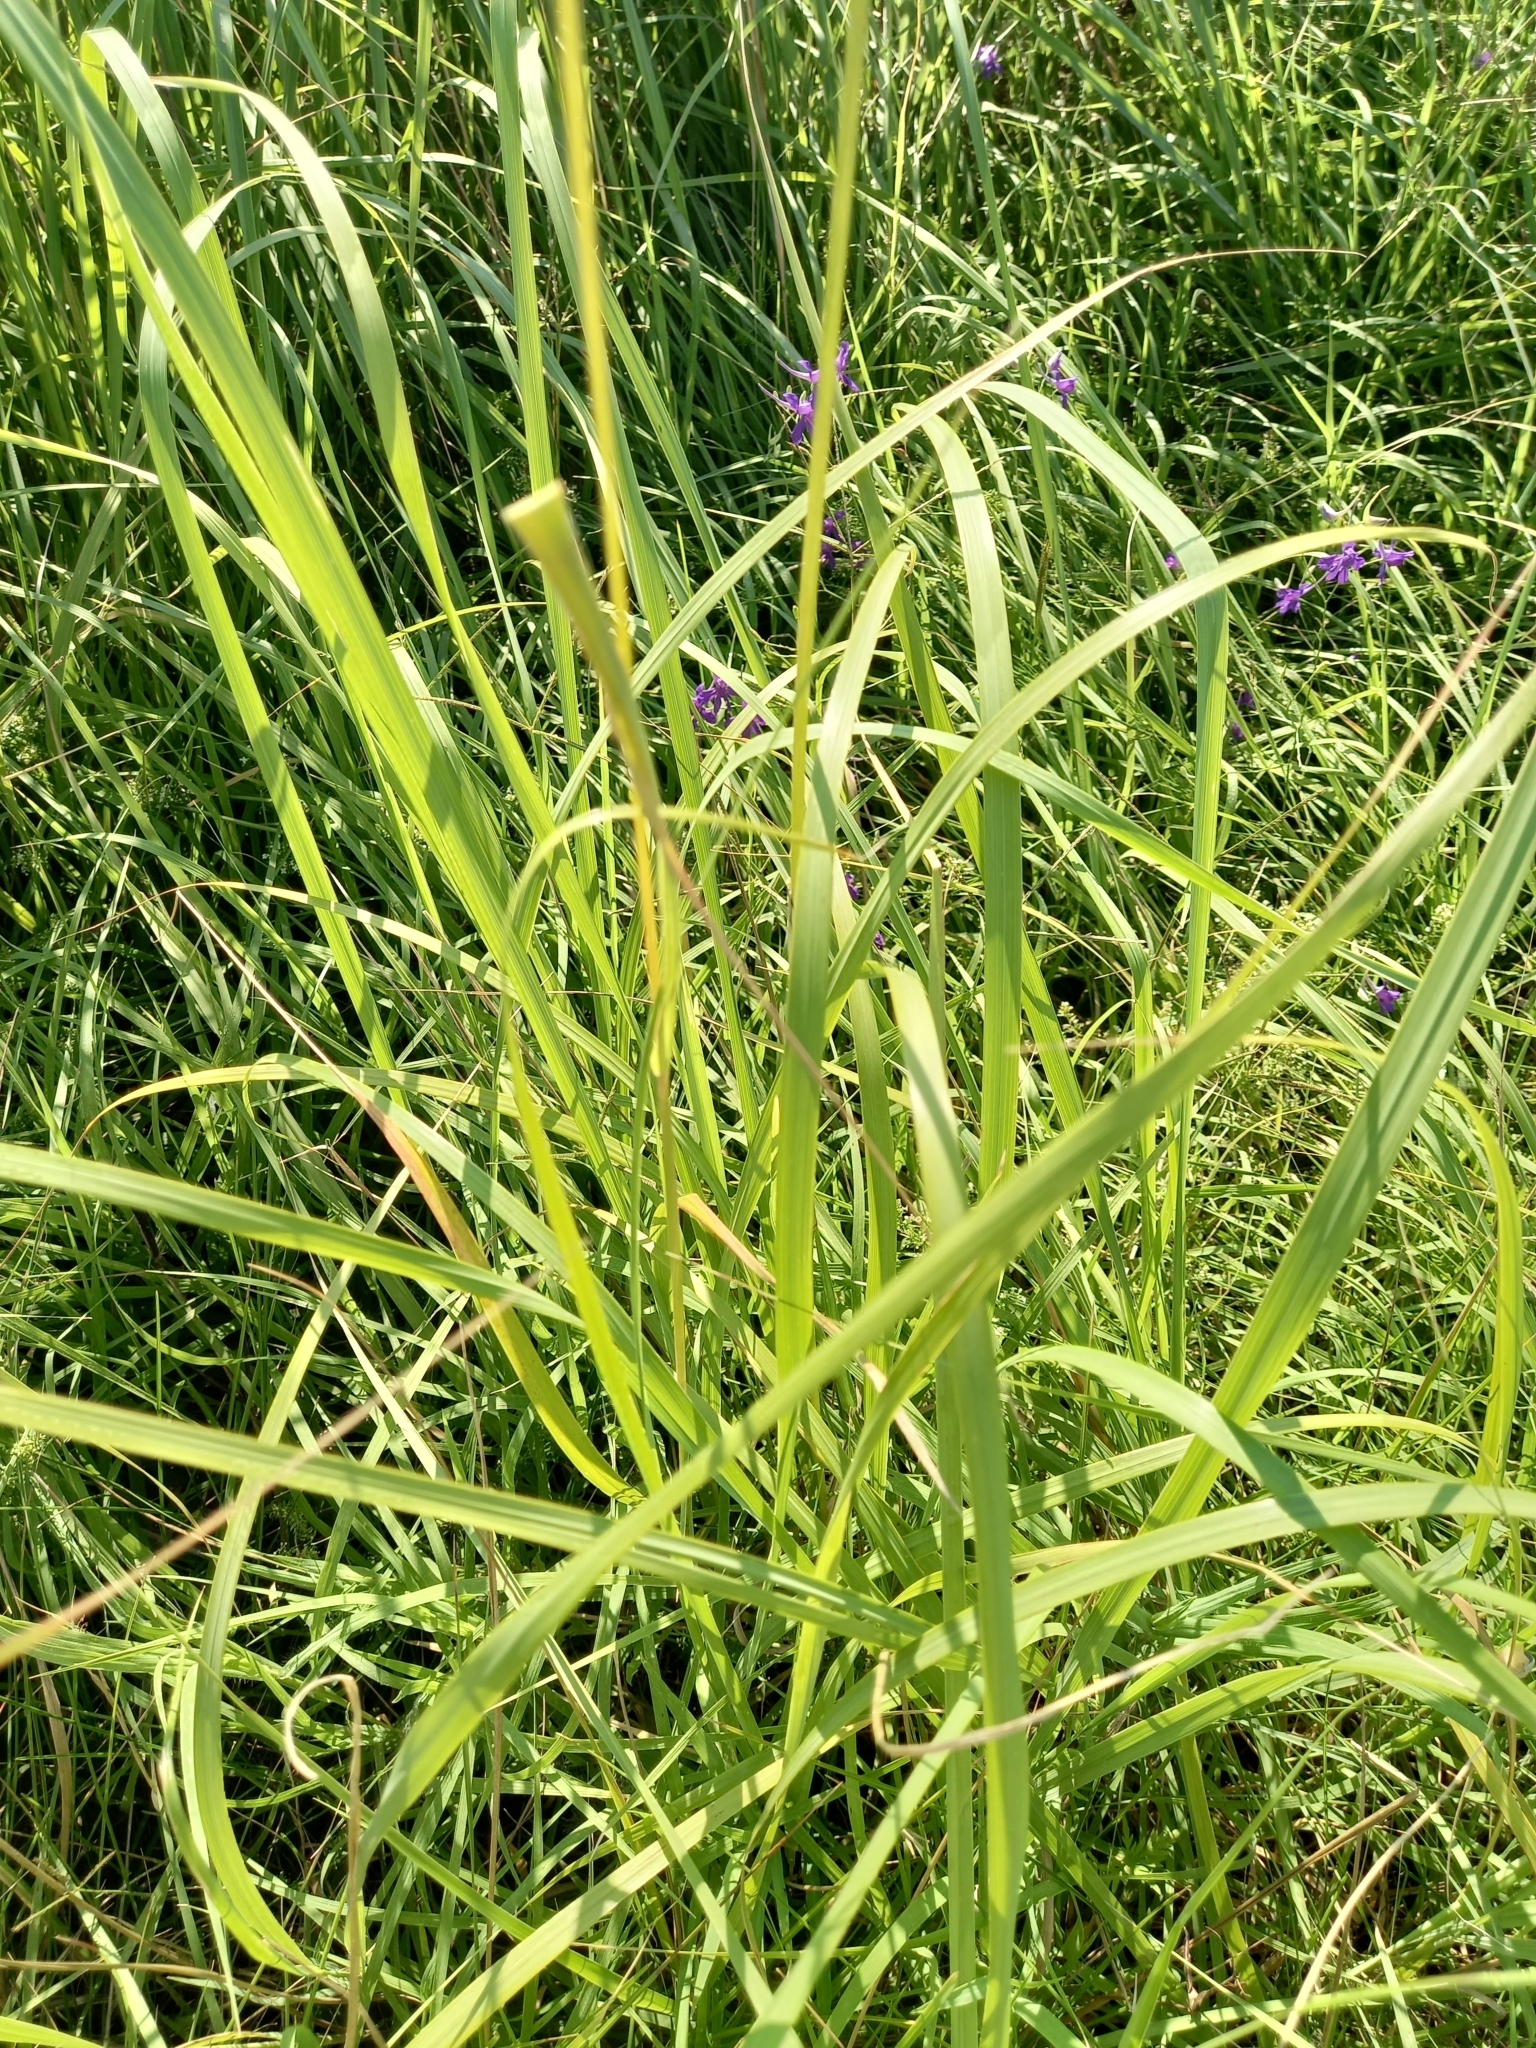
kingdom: Plantae
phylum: Tracheophyta
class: Liliopsida
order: Poales
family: Poaceae
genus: Calamagrostis
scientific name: Calamagrostis epigejos
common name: Wood small-reed
